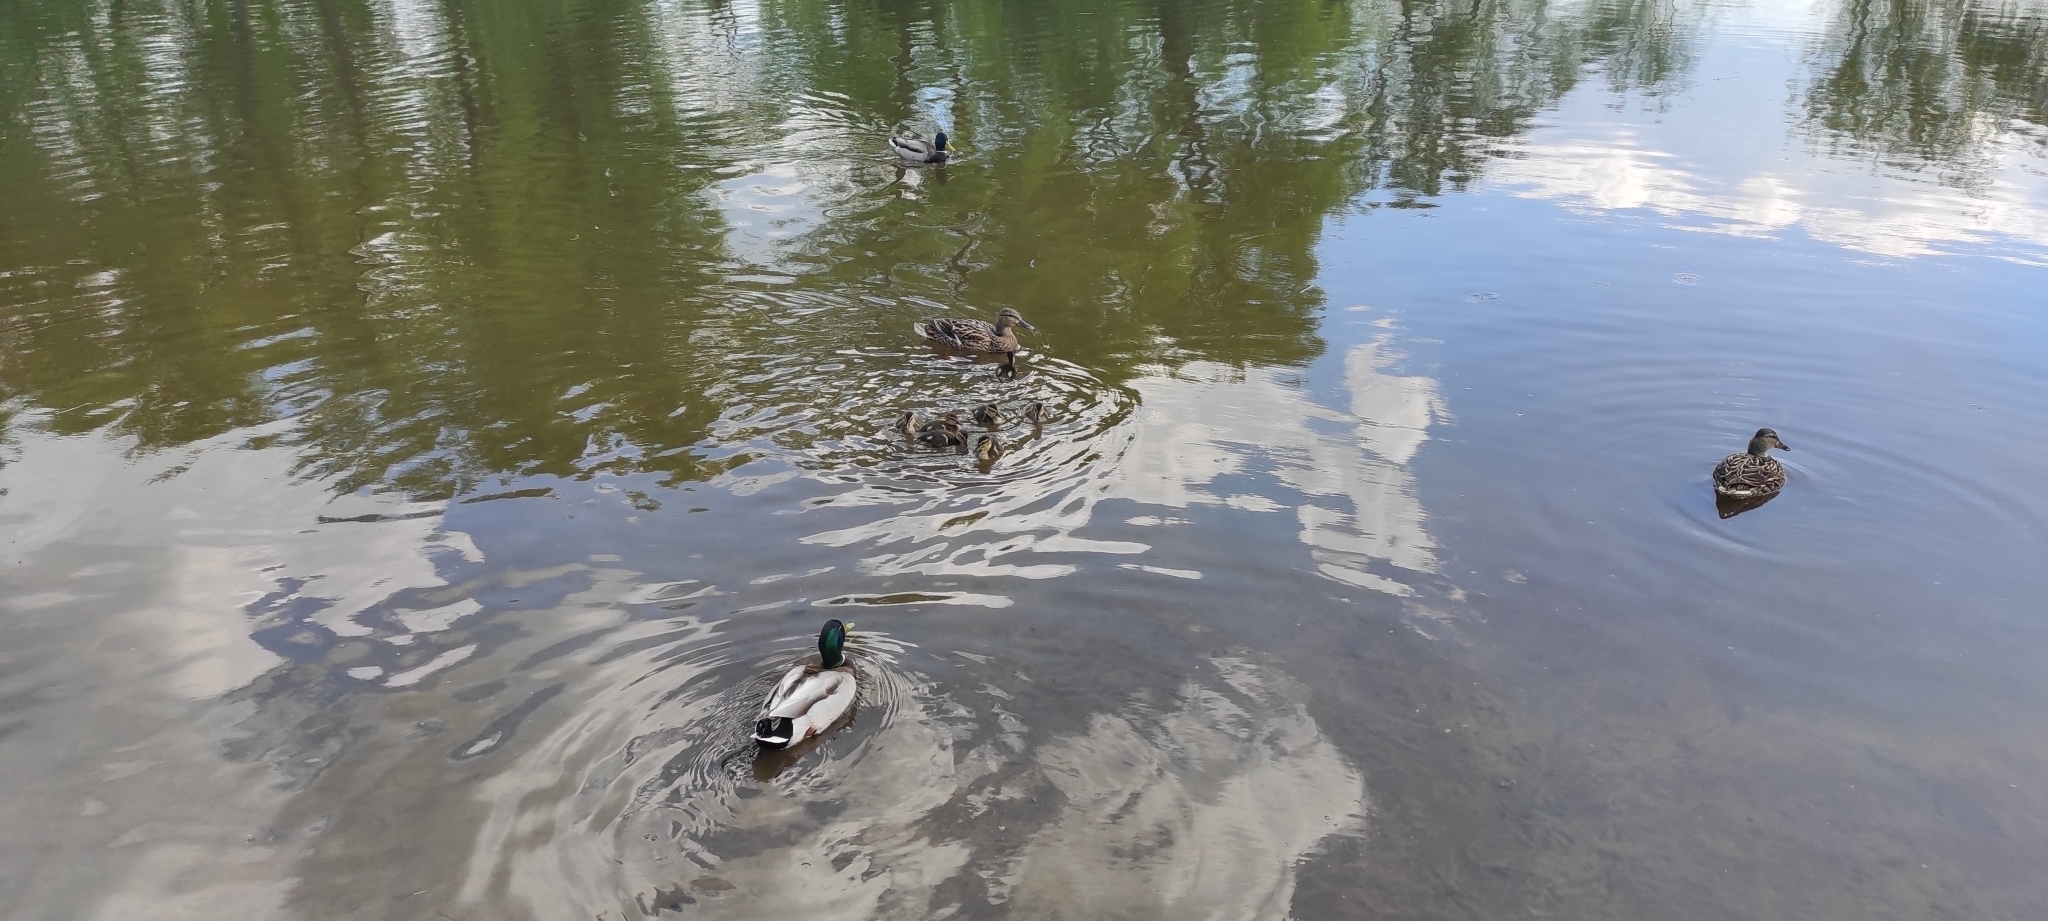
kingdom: Animalia
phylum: Chordata
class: Aves
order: Anseriformes
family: Anatidae
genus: Anas
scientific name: Anas platyrhynchos
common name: Mallard
